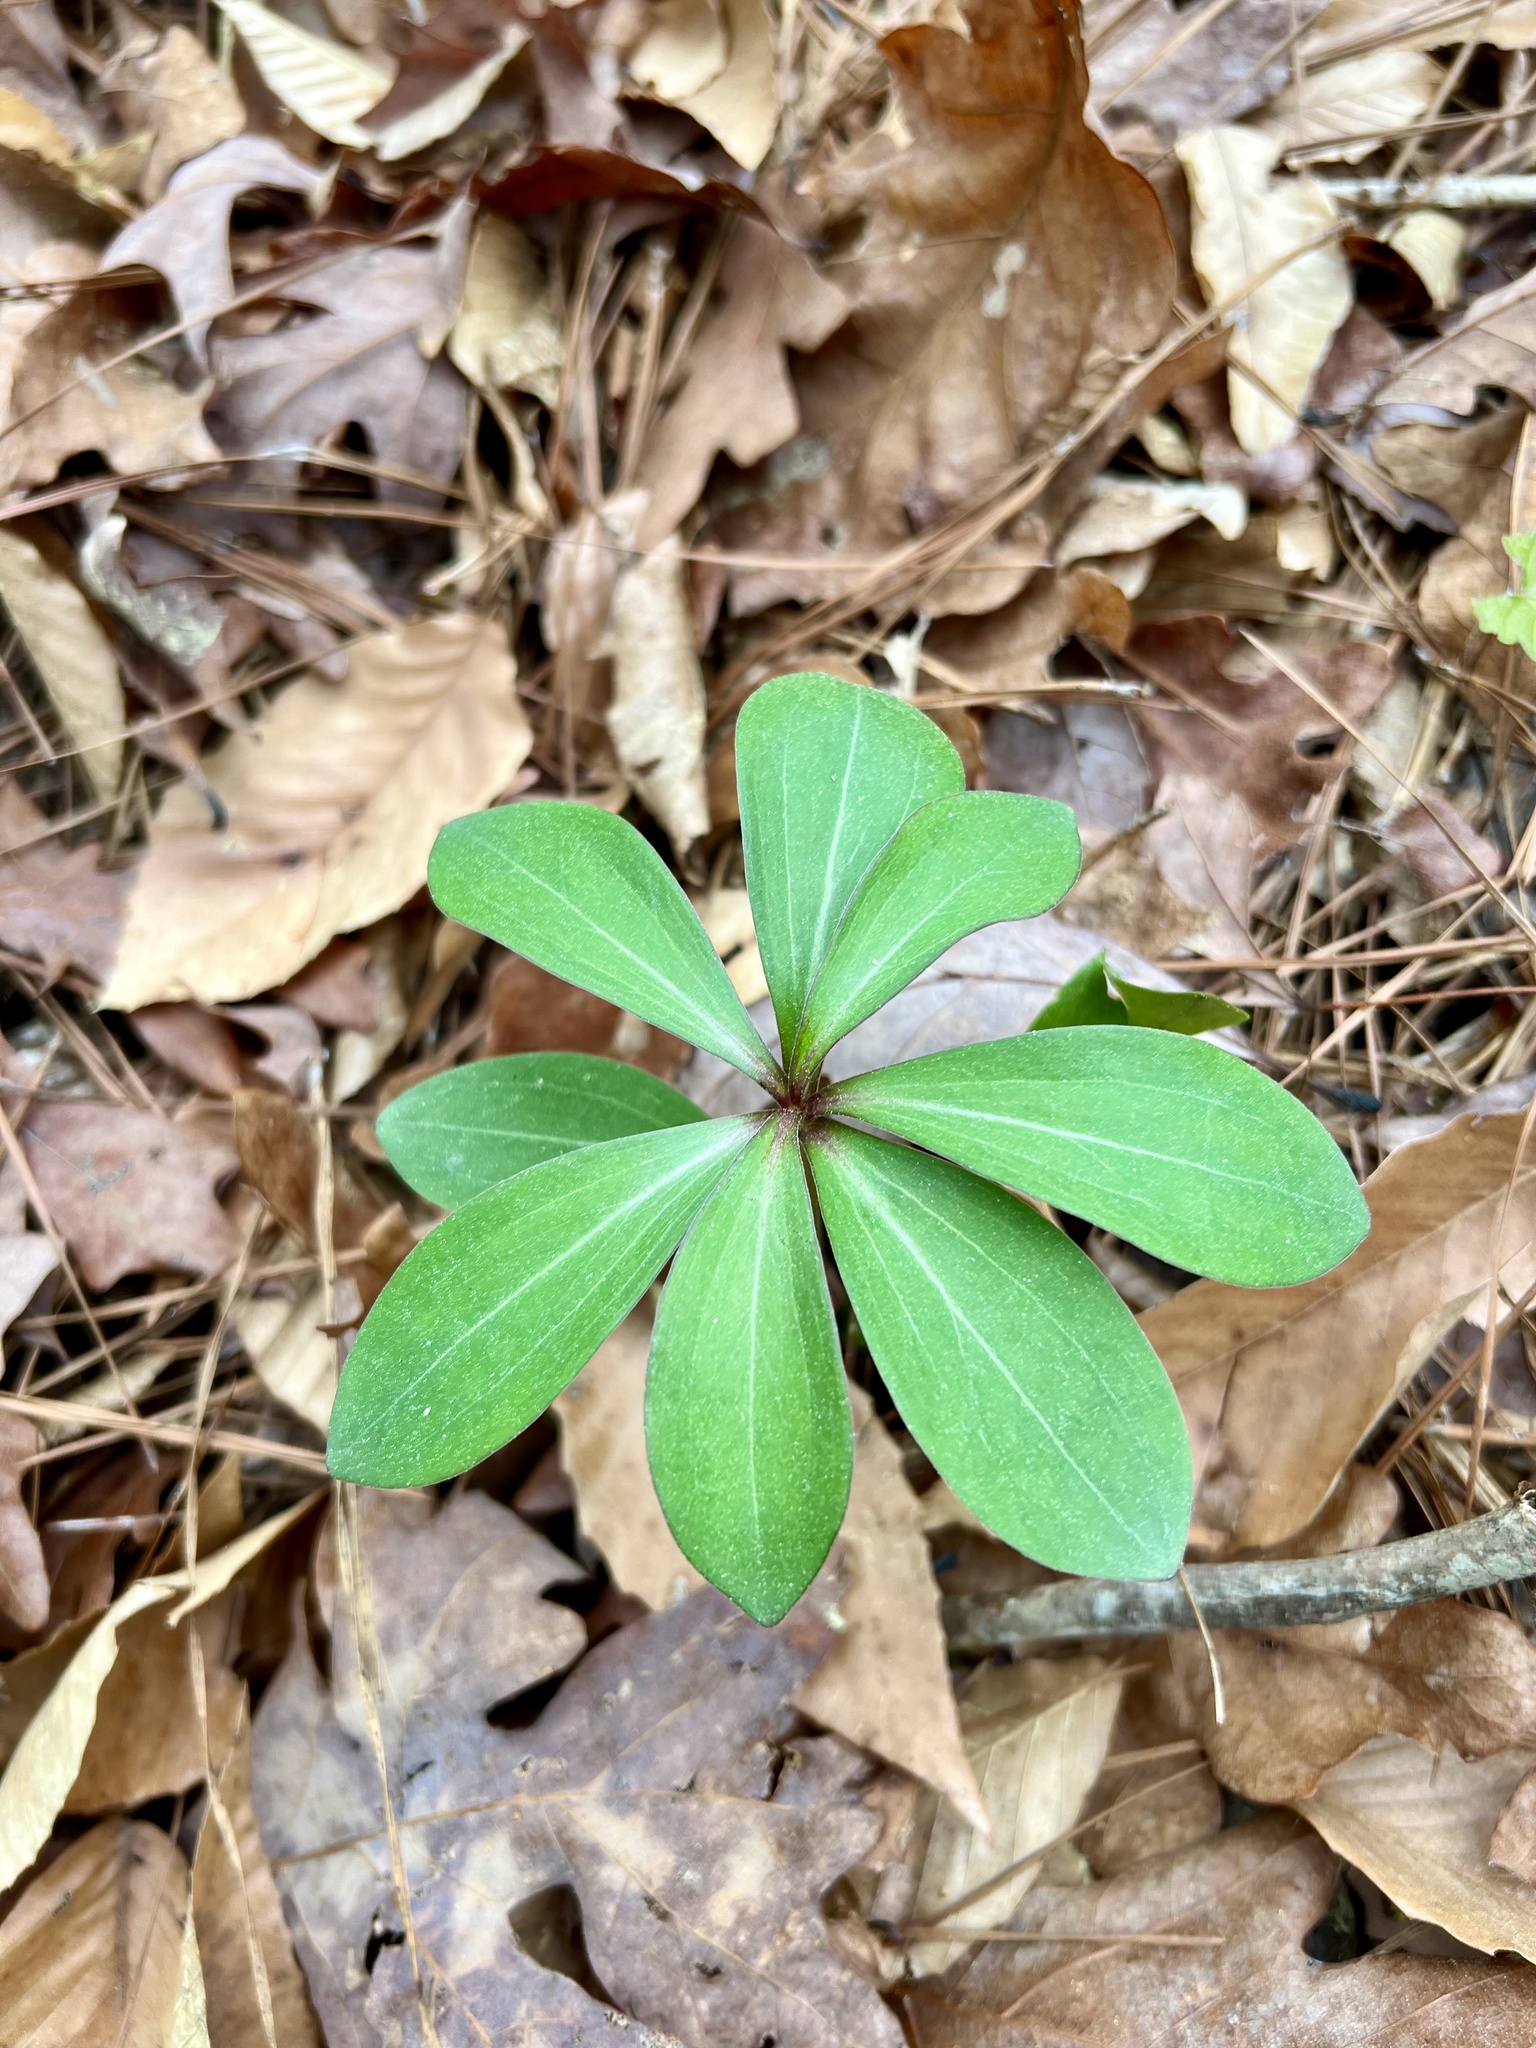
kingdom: Plantae
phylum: Tracheophyta
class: Liliopsida
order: Liliales
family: Liliaceae
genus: Lilium
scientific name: Lilium michauxii
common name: Carolina lily
